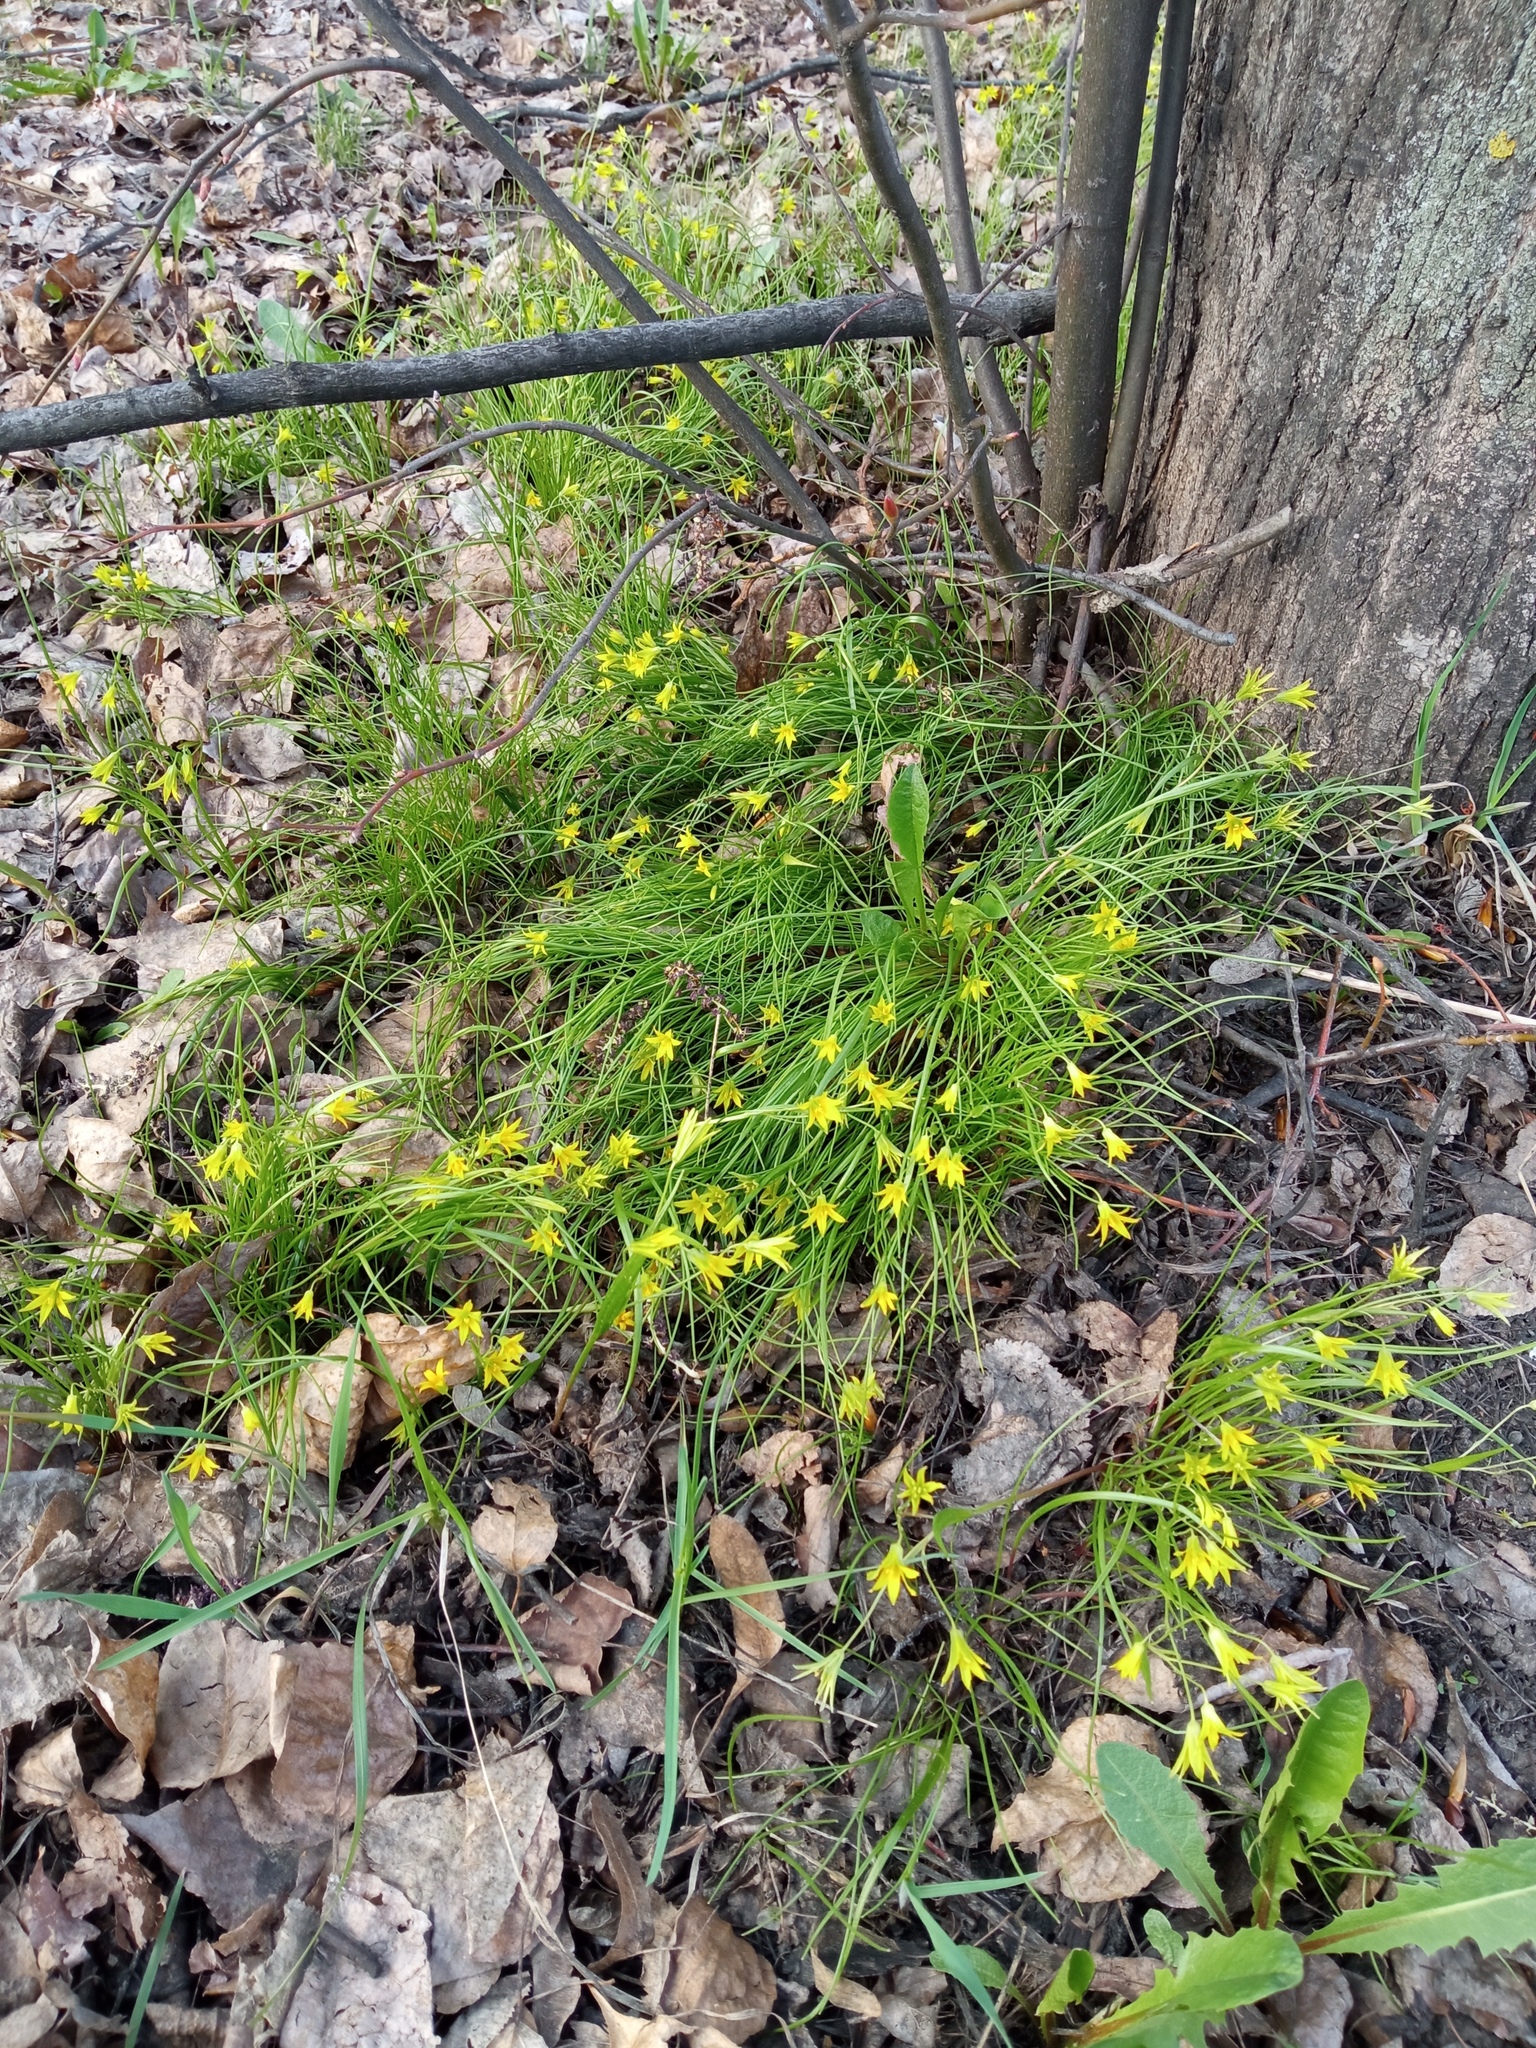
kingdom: Plantae
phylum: Tracheophyta
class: Liliopsida
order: Liliales
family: Liliaceae
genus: Gagea
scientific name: Gagea minima
